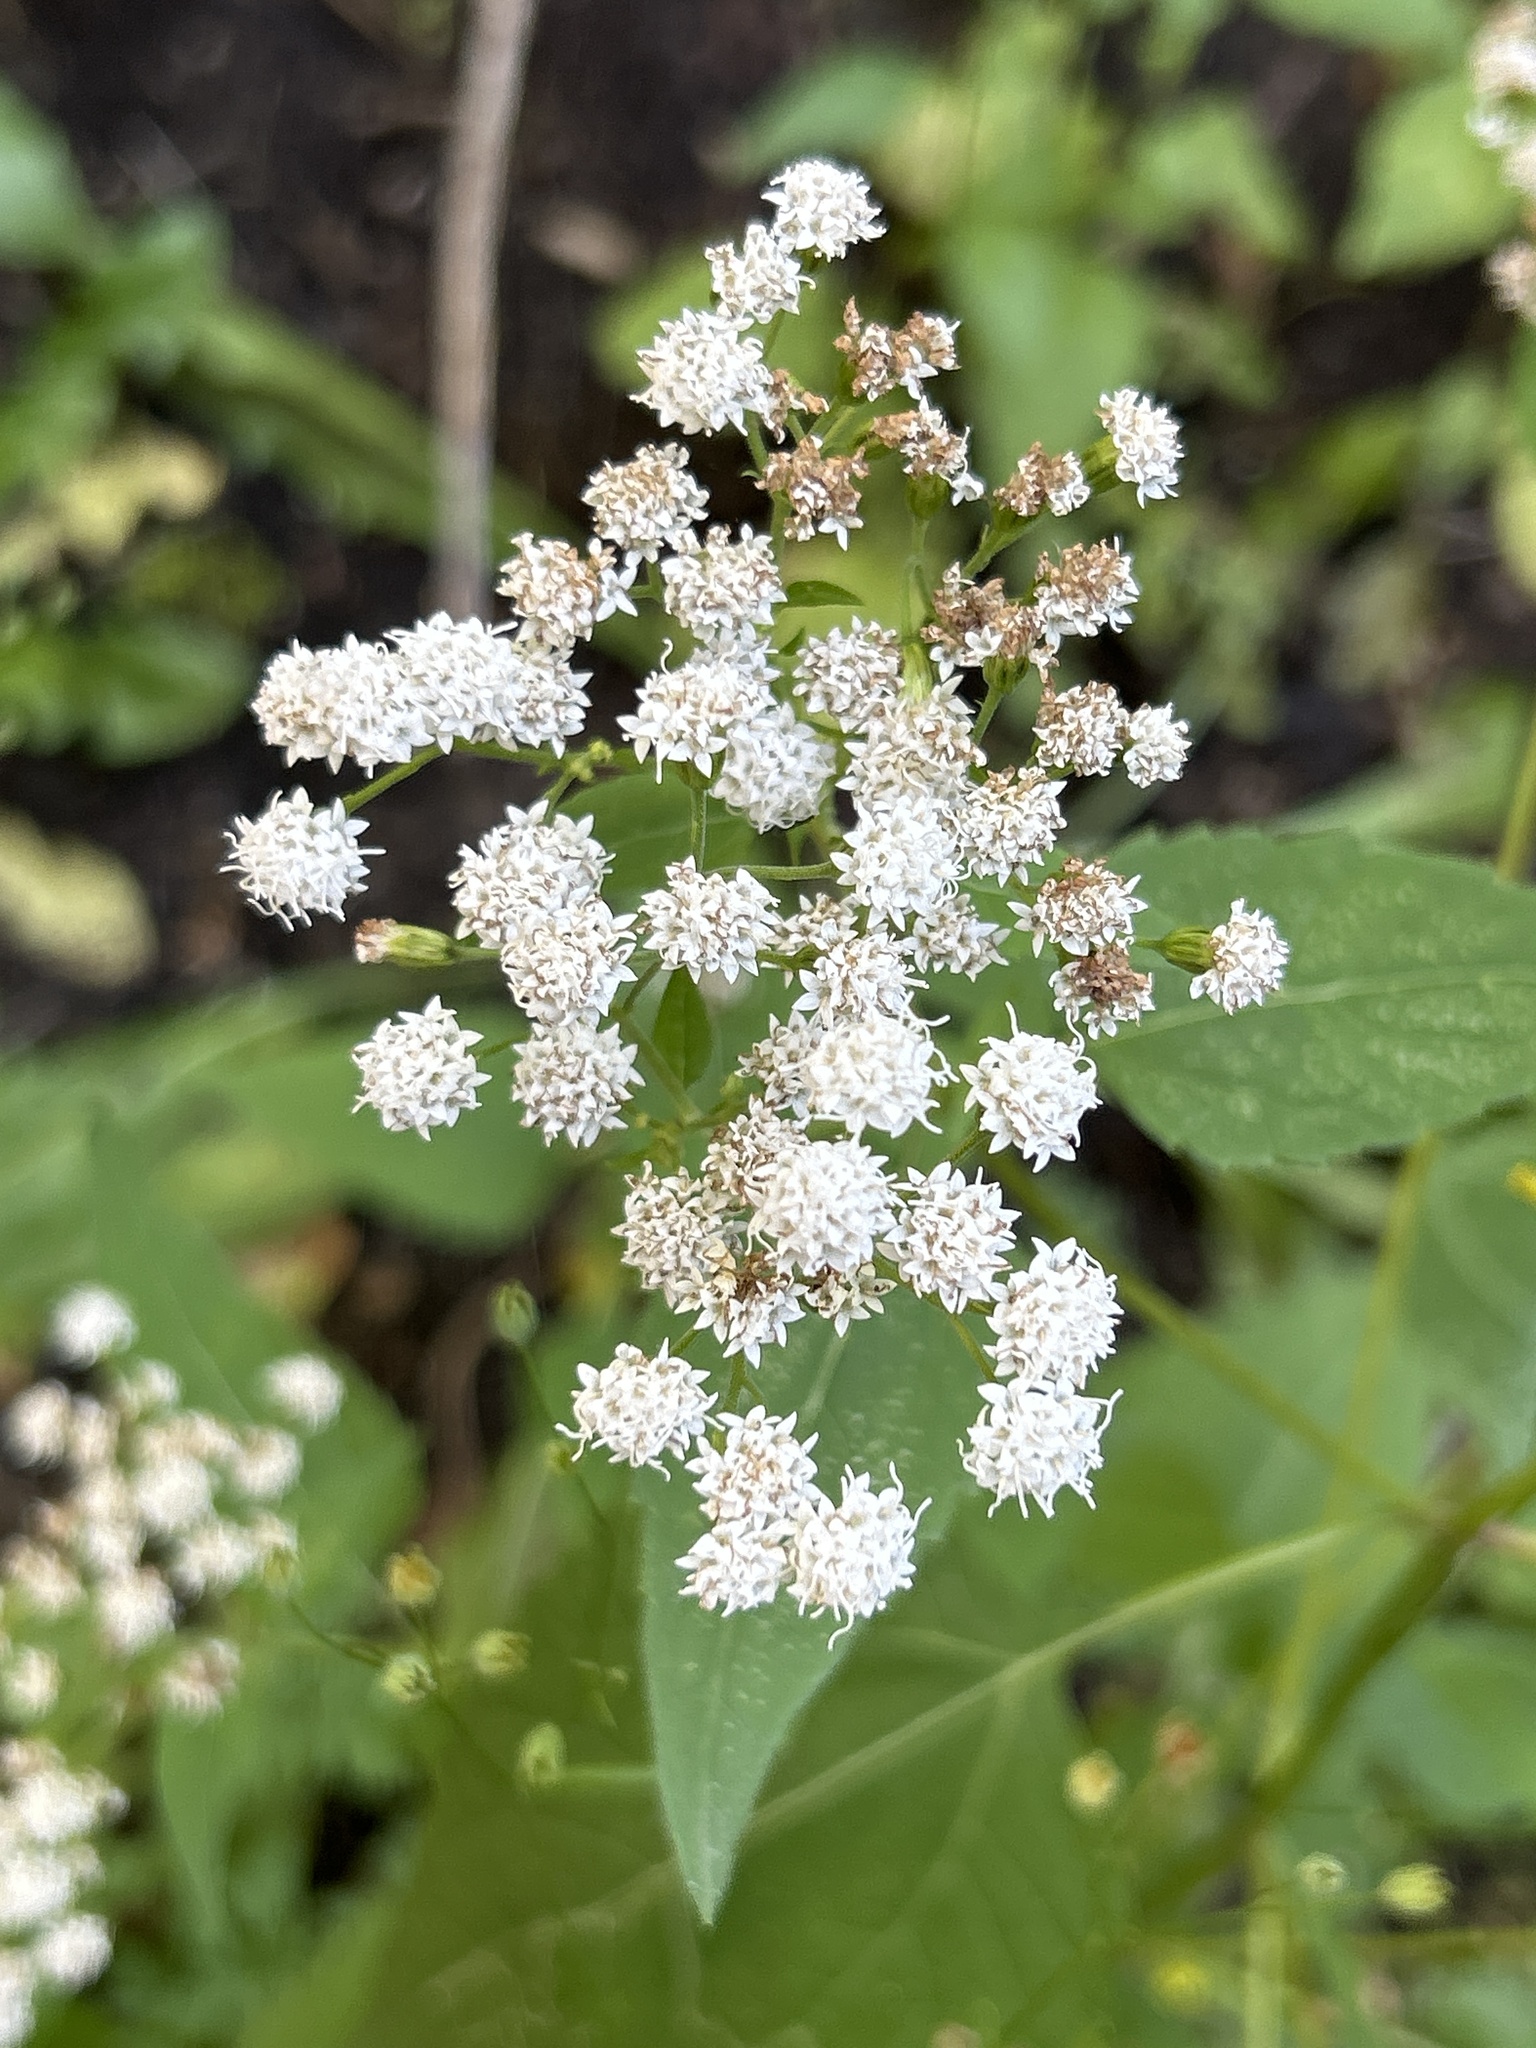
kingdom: Plantae
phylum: Tracheophyta
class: Magnoliopsida
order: Asterales
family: Asteraceae
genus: Ageratina
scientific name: Ageratina altissima
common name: White snakeroot
